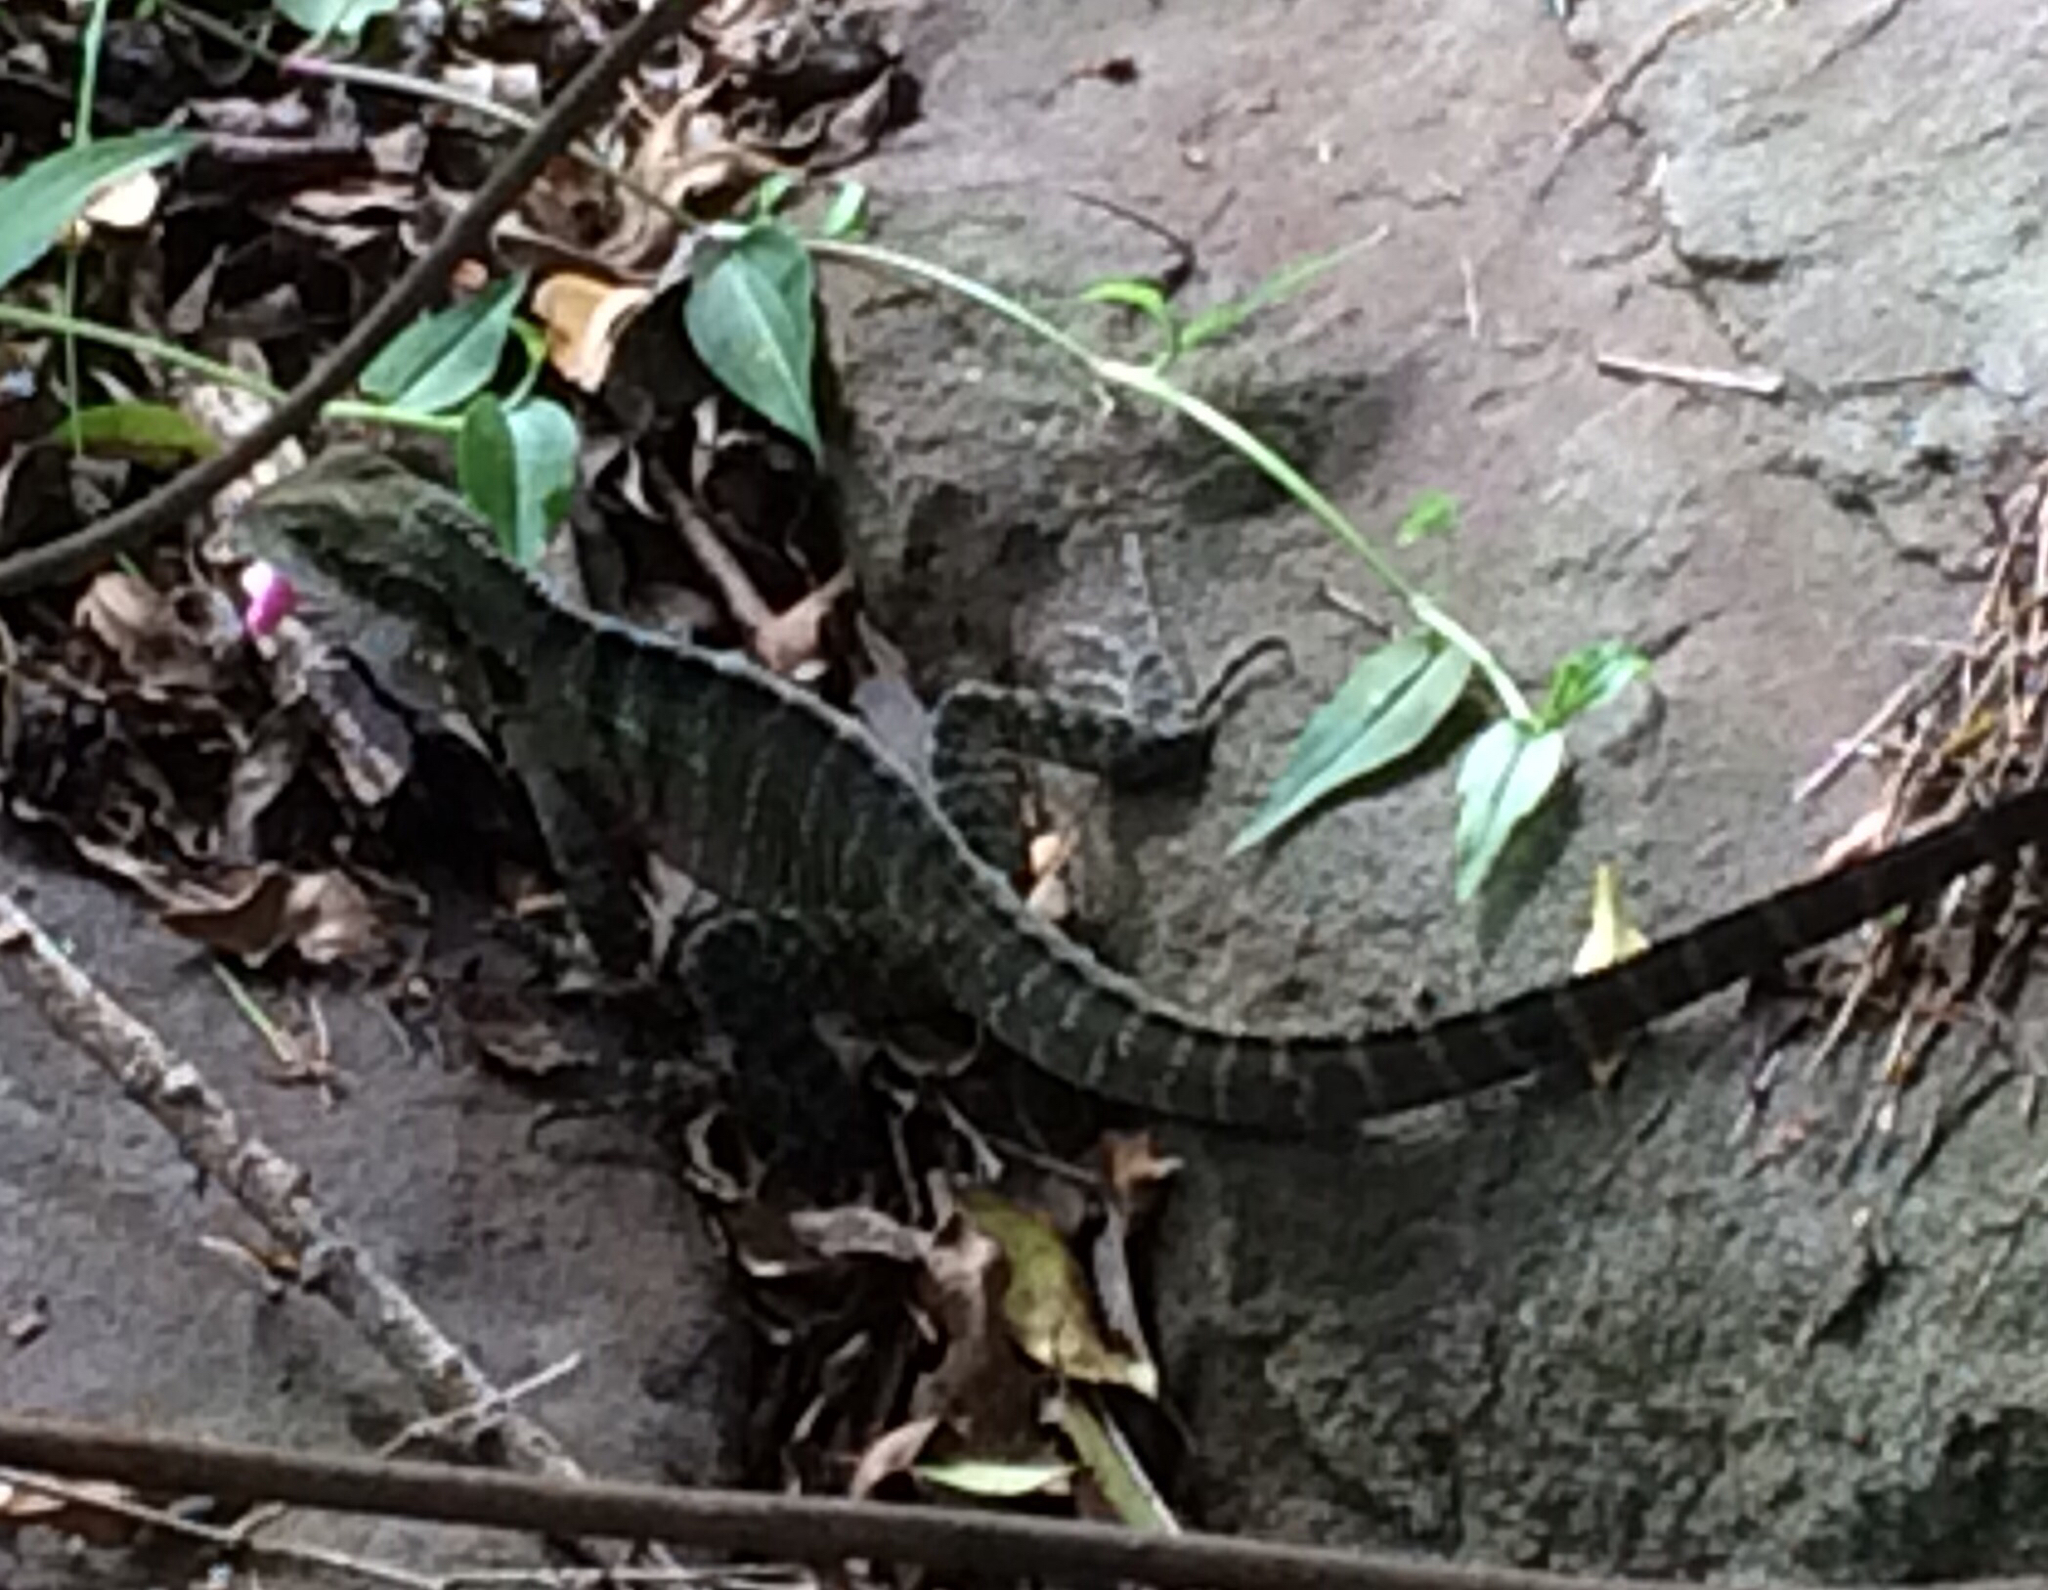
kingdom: Animalia
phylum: Chordata
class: Squamata
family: Agamidae
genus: Intellagama
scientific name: Intellagama lesueurii
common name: Eastern water dragon
